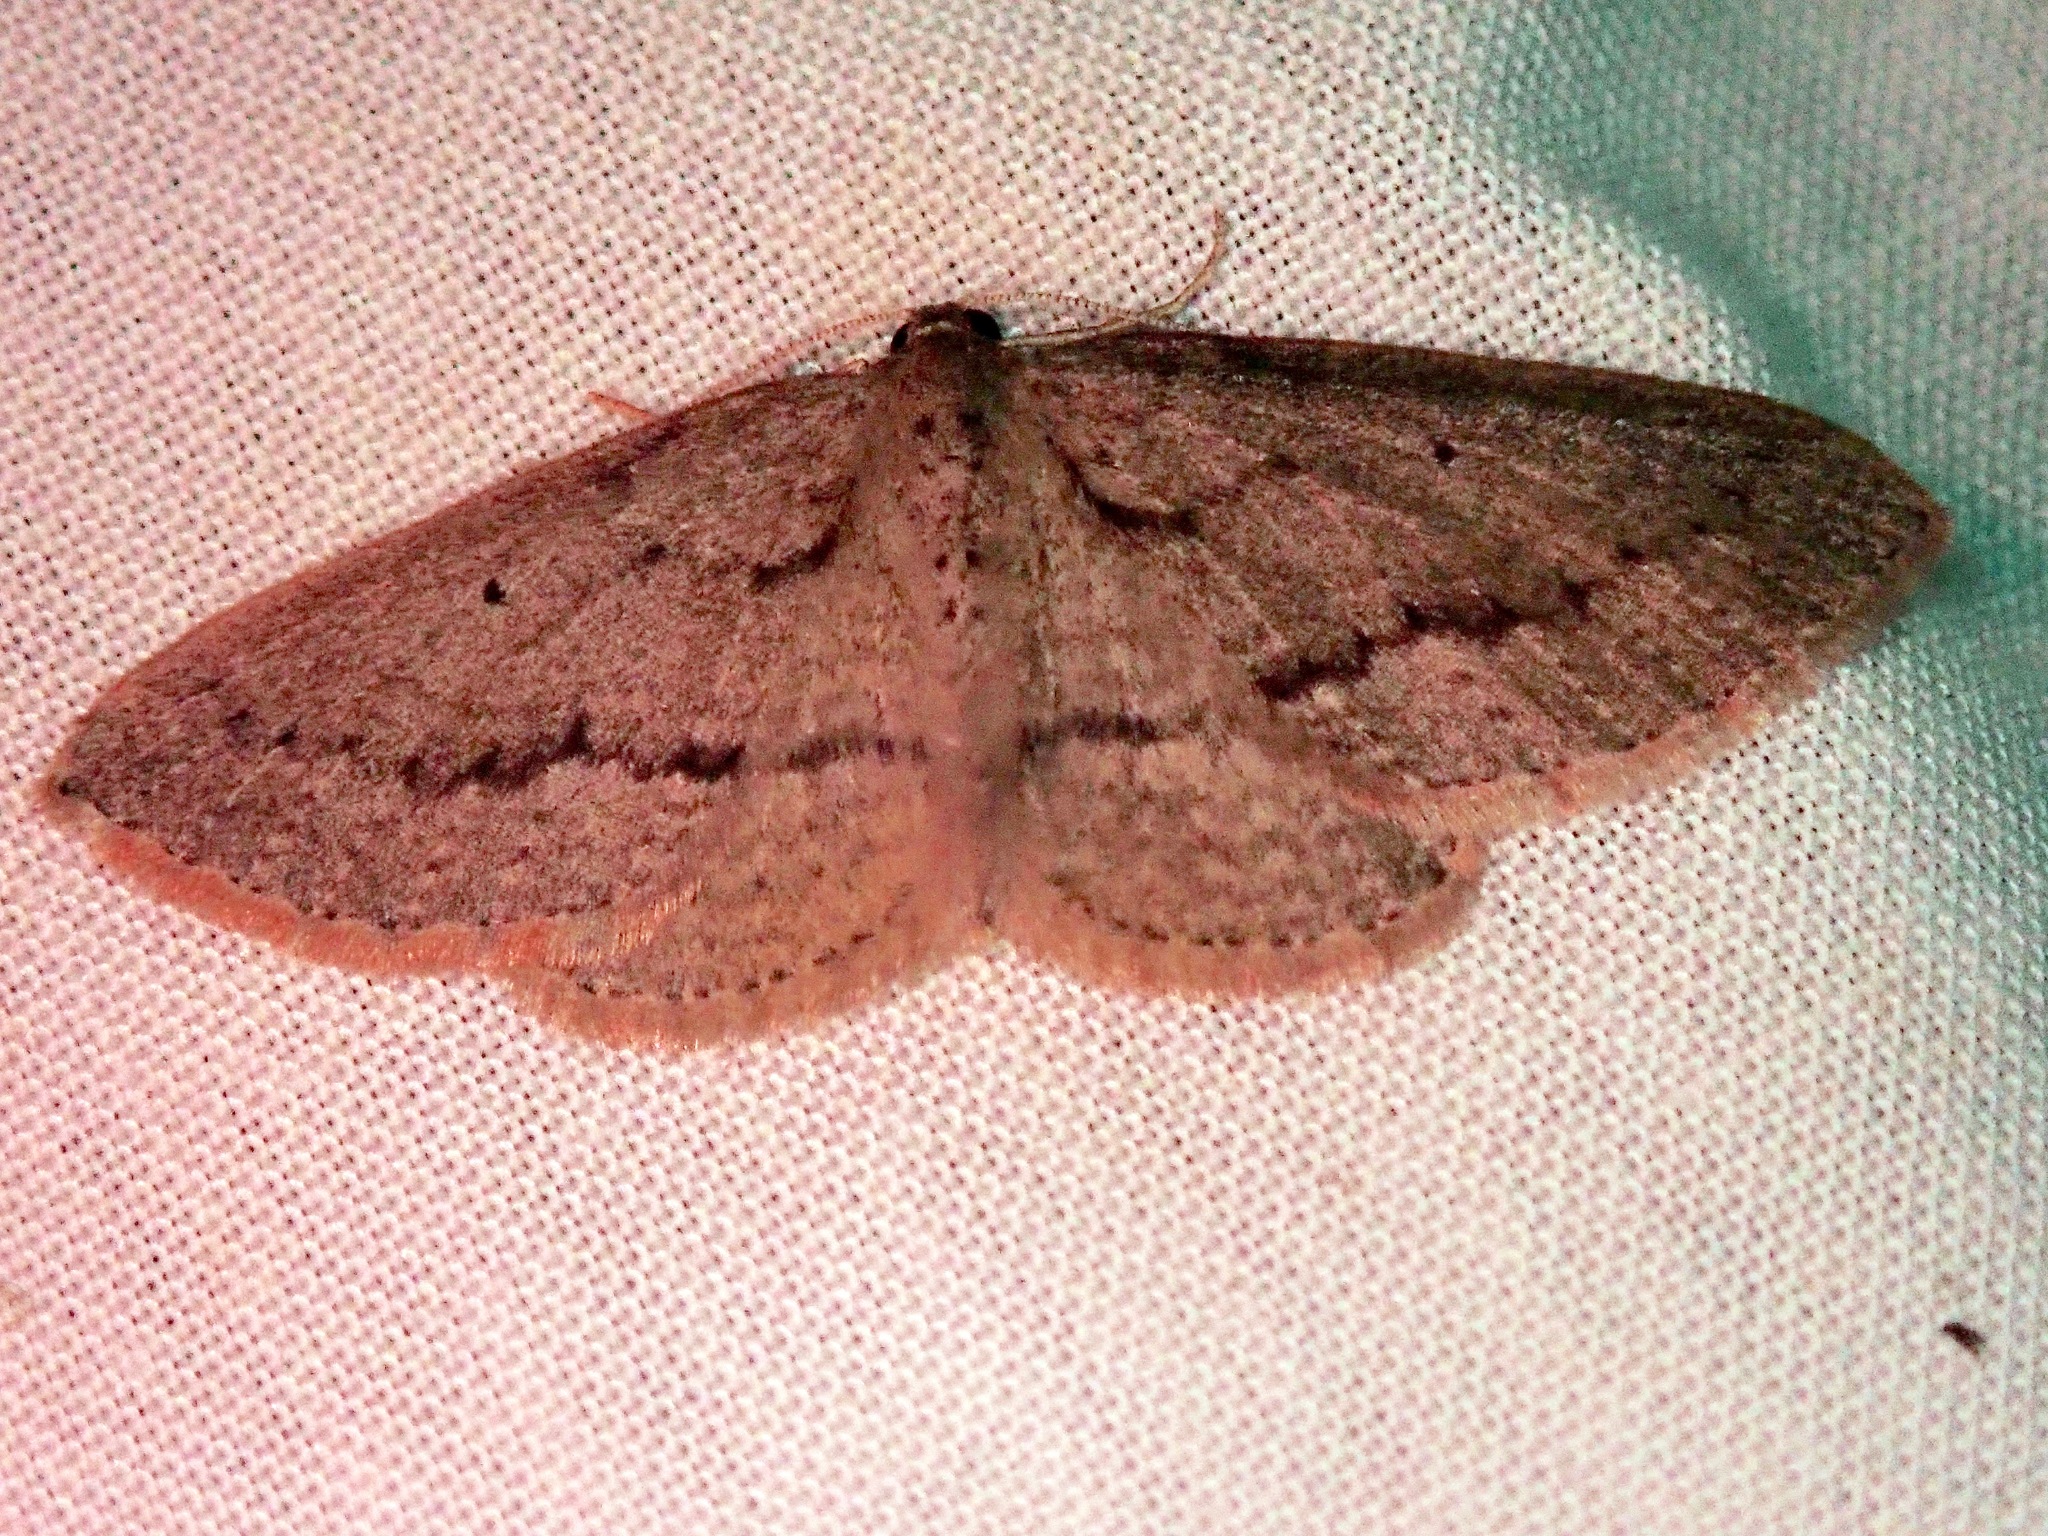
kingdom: Animalia
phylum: Arthropoda
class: Insecta
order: Lepidoptera
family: Geometridae
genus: Poecilasthena
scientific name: Poecilasthena schistaria
